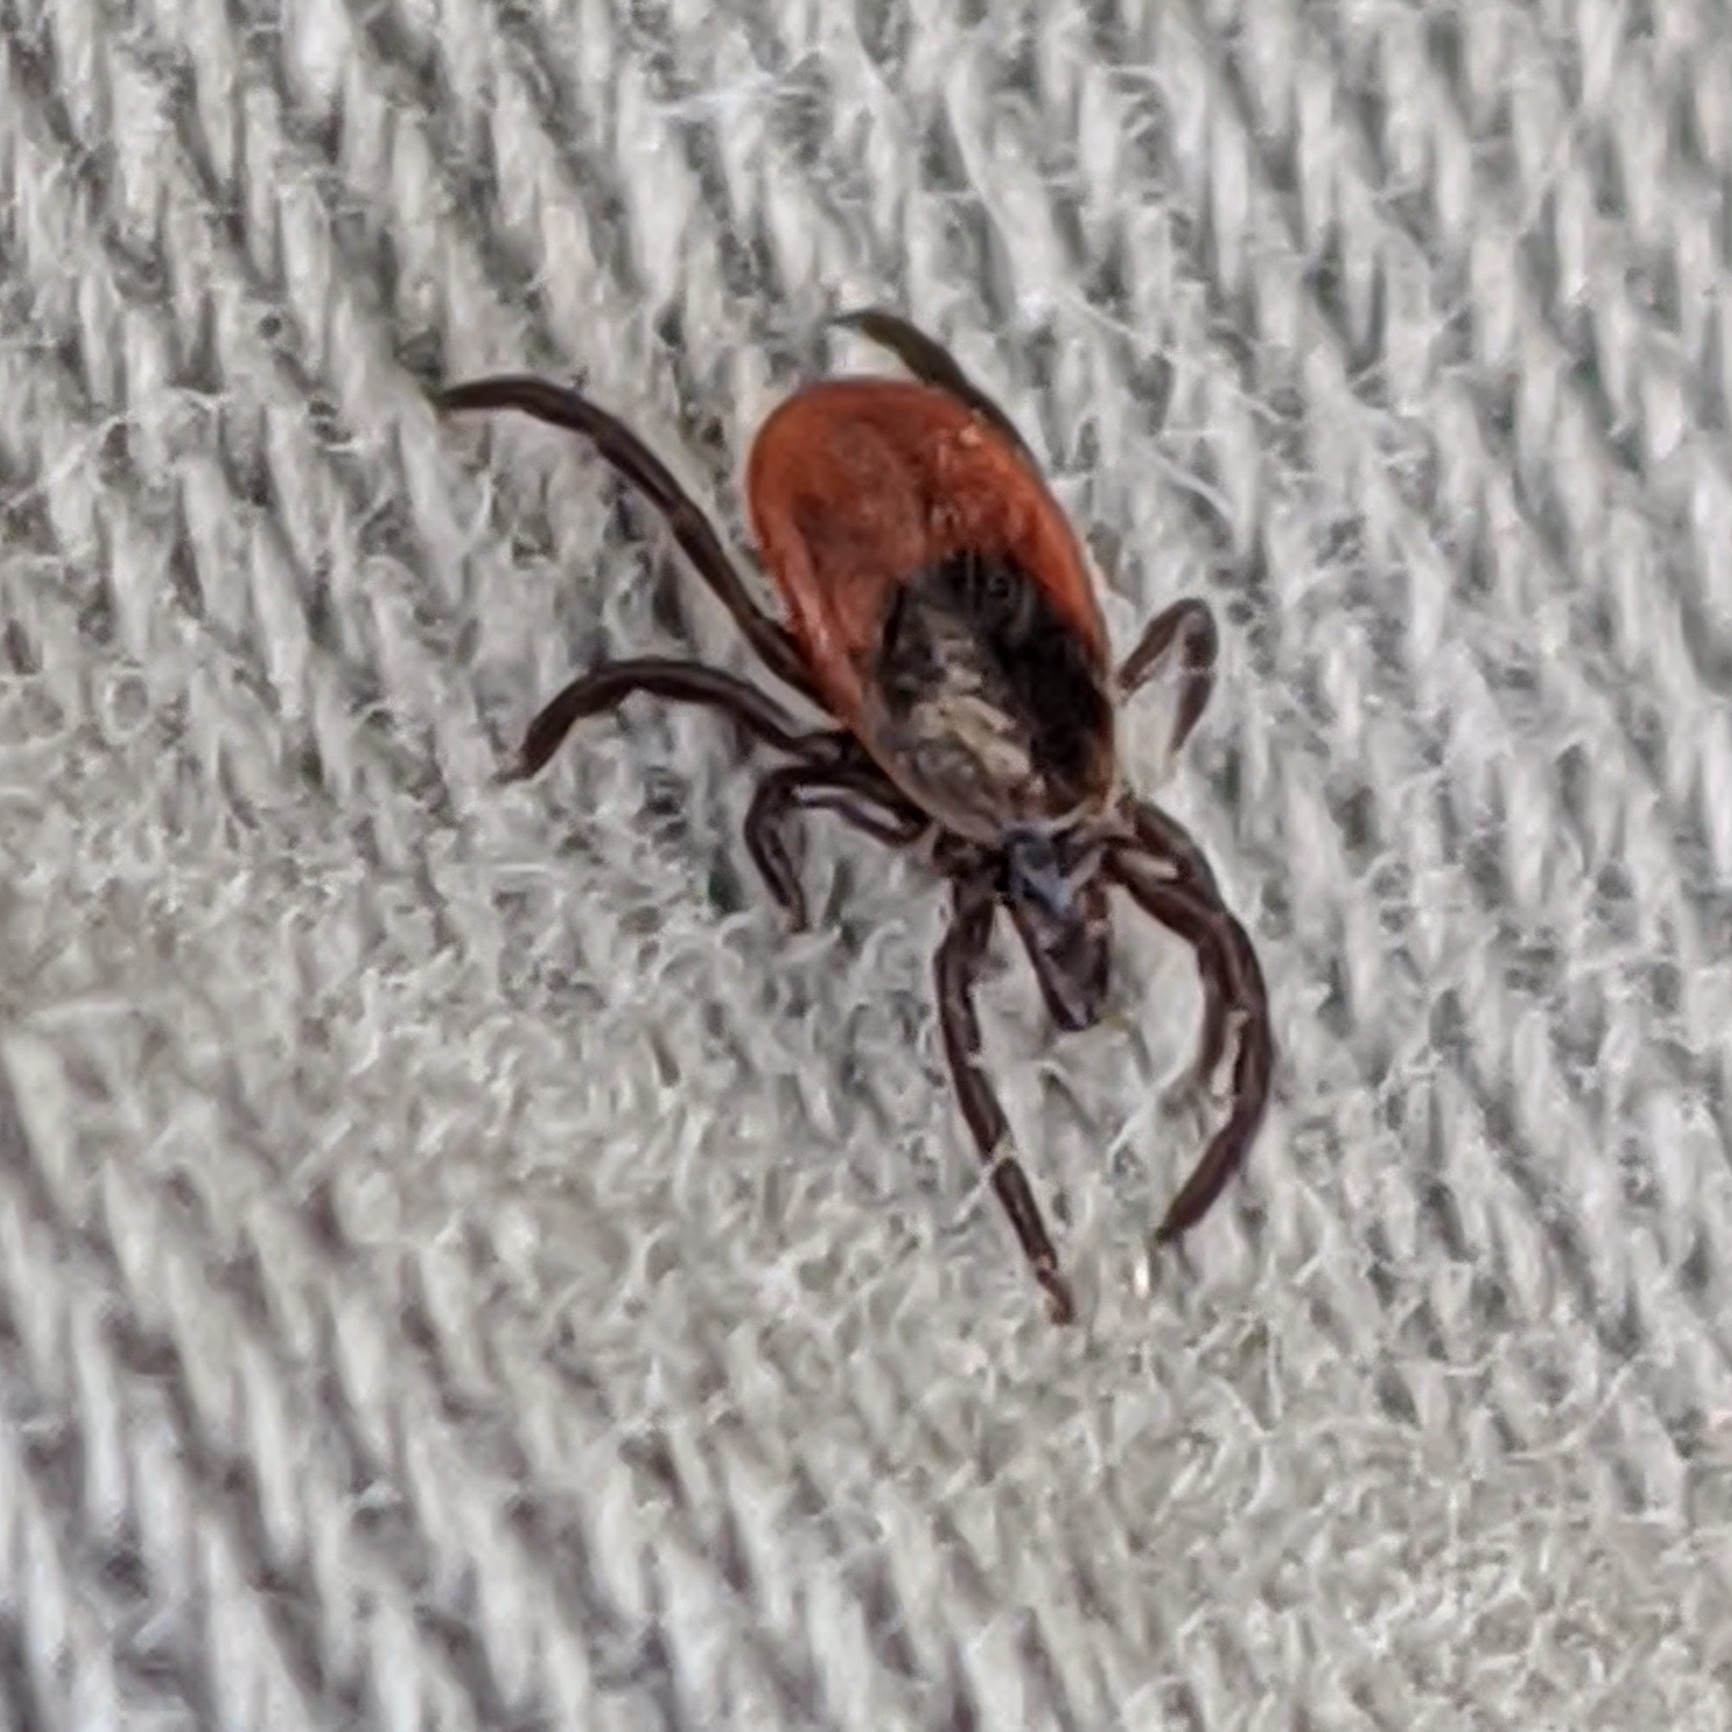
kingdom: Animalia
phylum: Arthropoda
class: Arachnida
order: Ixodida
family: Ixodidae
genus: Ixodes
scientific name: Ixodes scapularis
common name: Black legged tick
